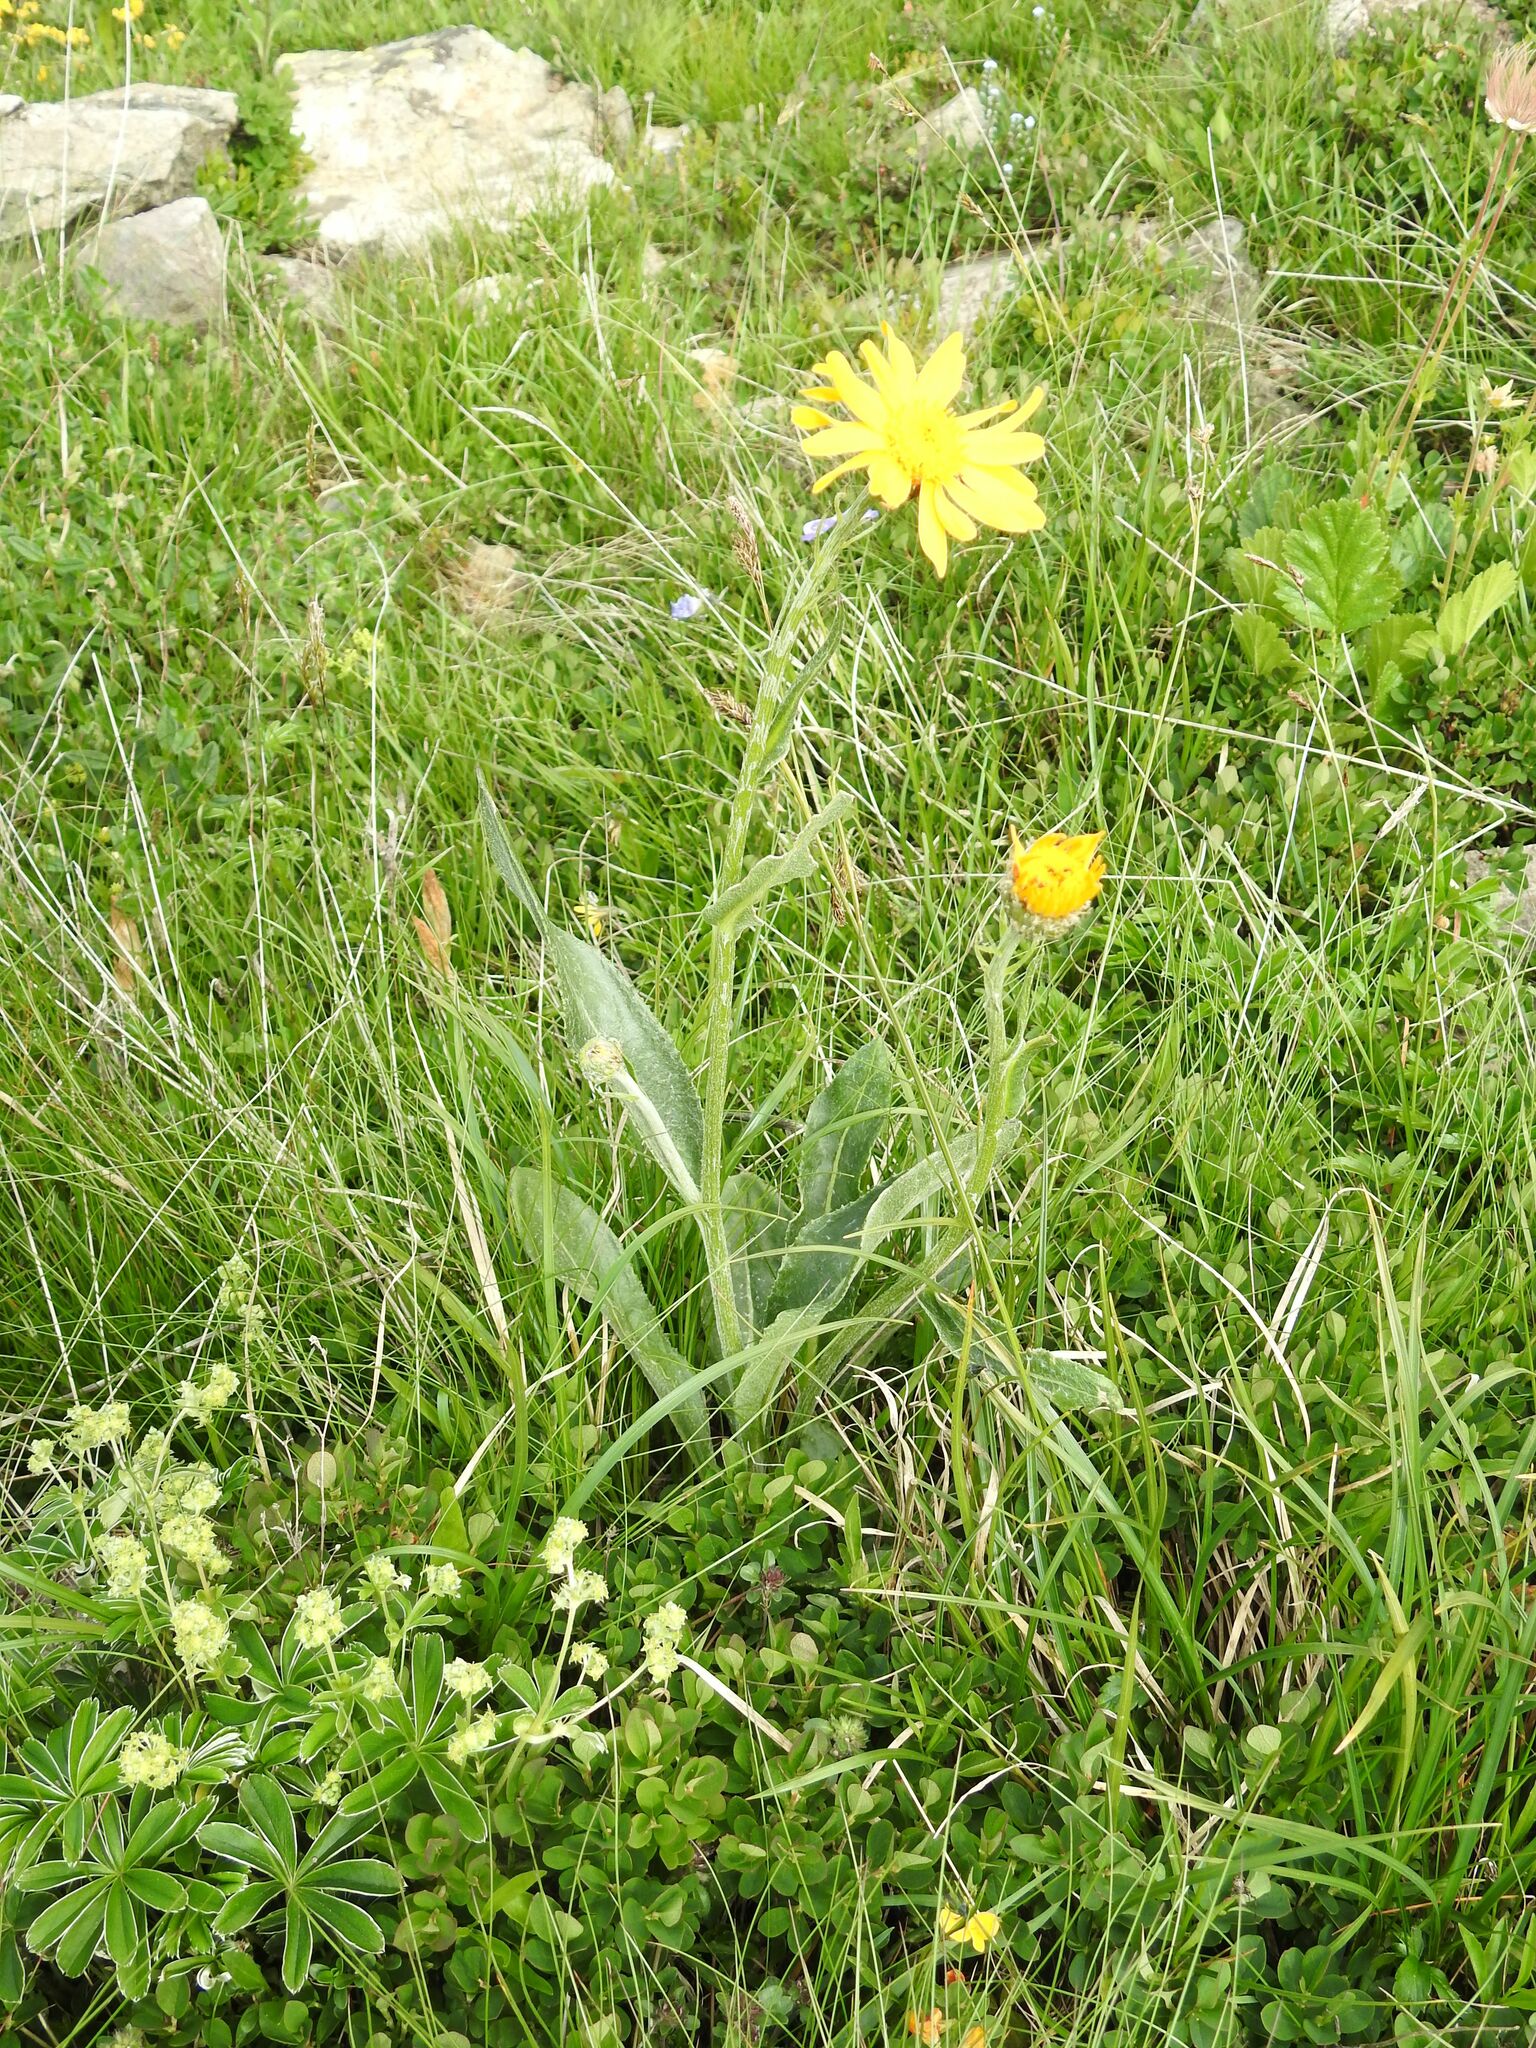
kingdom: Plantae
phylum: Tracheophyta
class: Magnoliopsida
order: Asterales
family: Asteraceae
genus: Senecio
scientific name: Senecio doronicum
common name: Chamois ragwort
